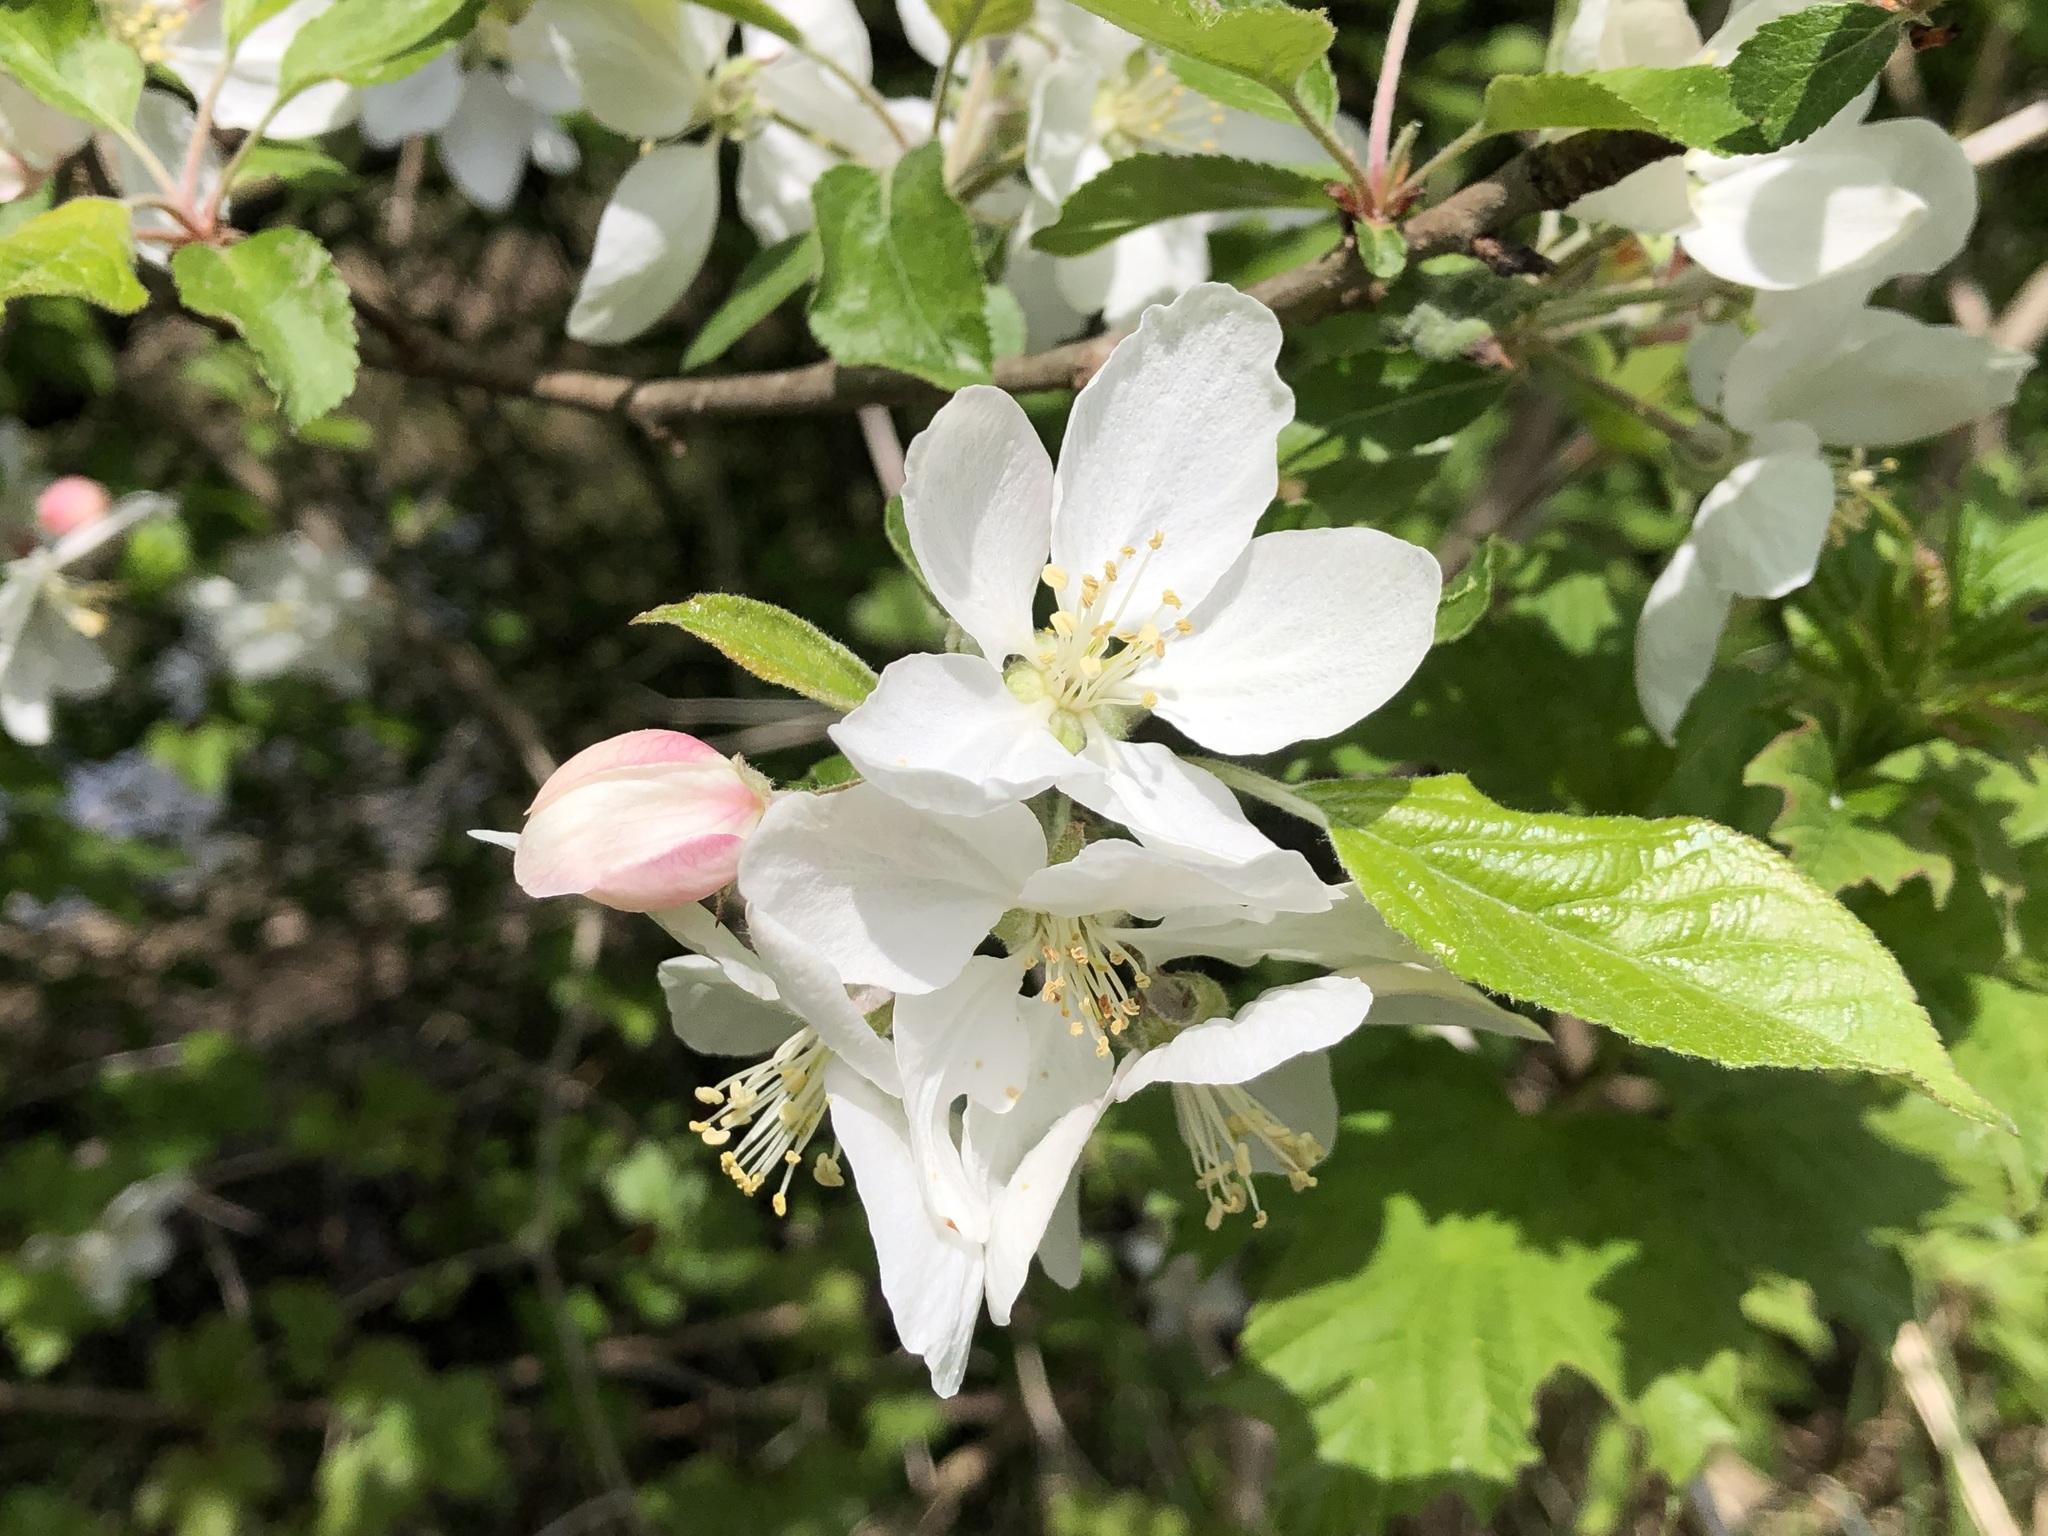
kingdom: Plantae
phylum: Tracheophyta
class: Magnoliopsida
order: Rosales
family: Rosaceae
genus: Malus
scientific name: Malus domestica
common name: Apple
